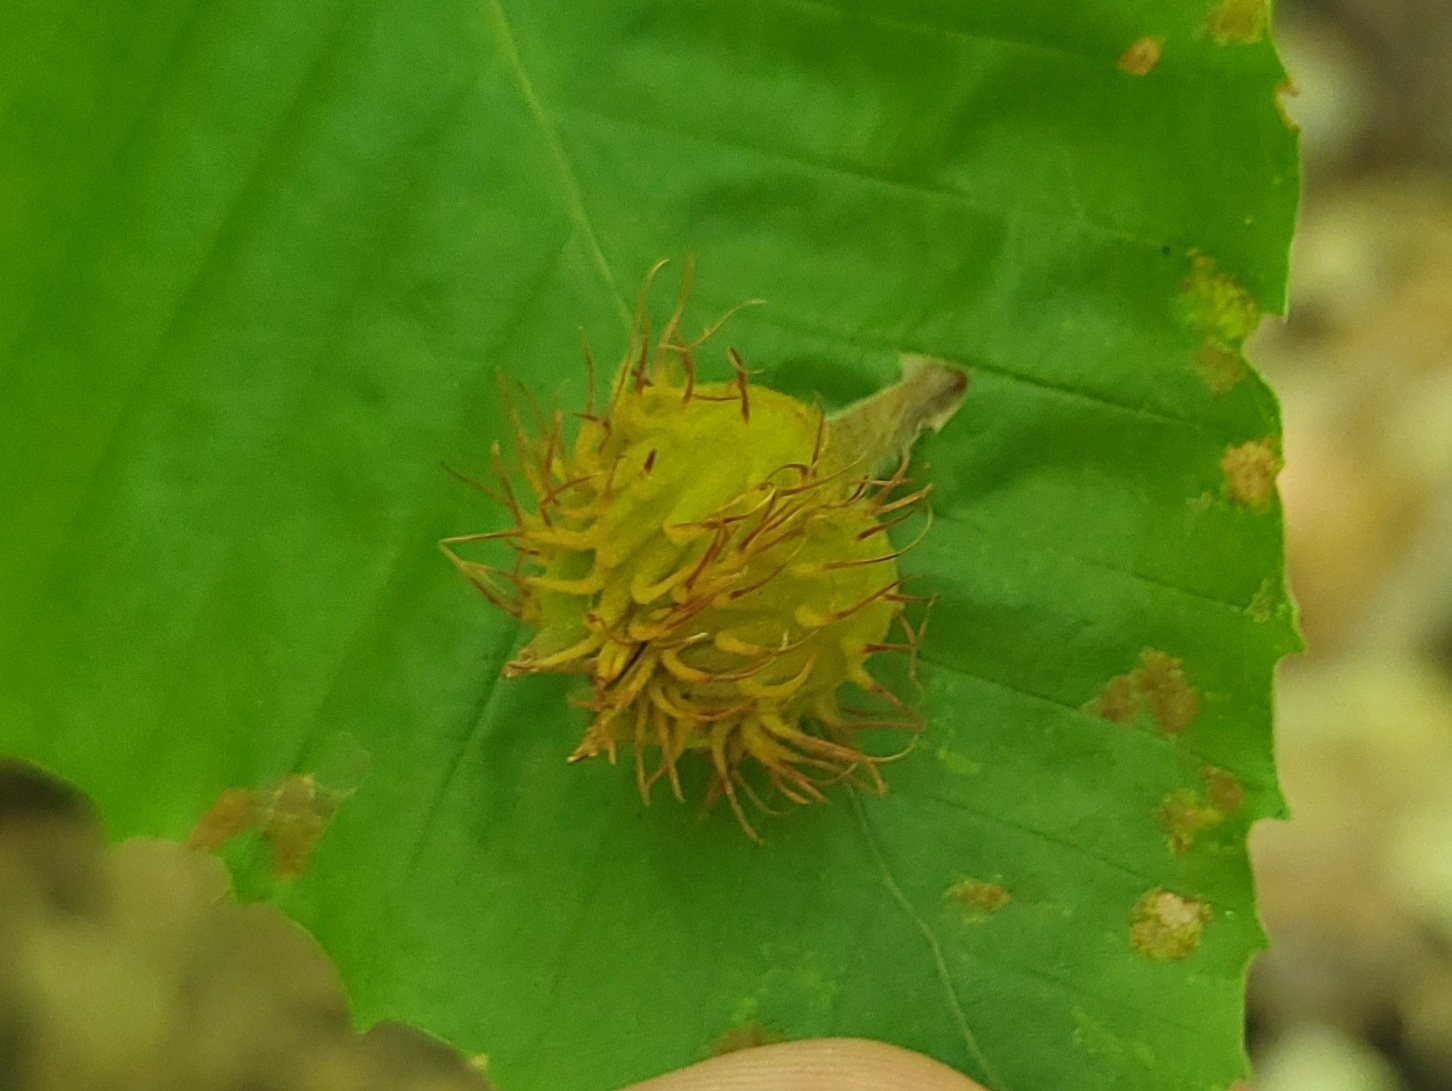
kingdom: Plantae
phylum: Tracheophyta
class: Magnoliopsida
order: Fagales
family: Fagaceae
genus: Fagus
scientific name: Fagus grandifolia
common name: American beech
